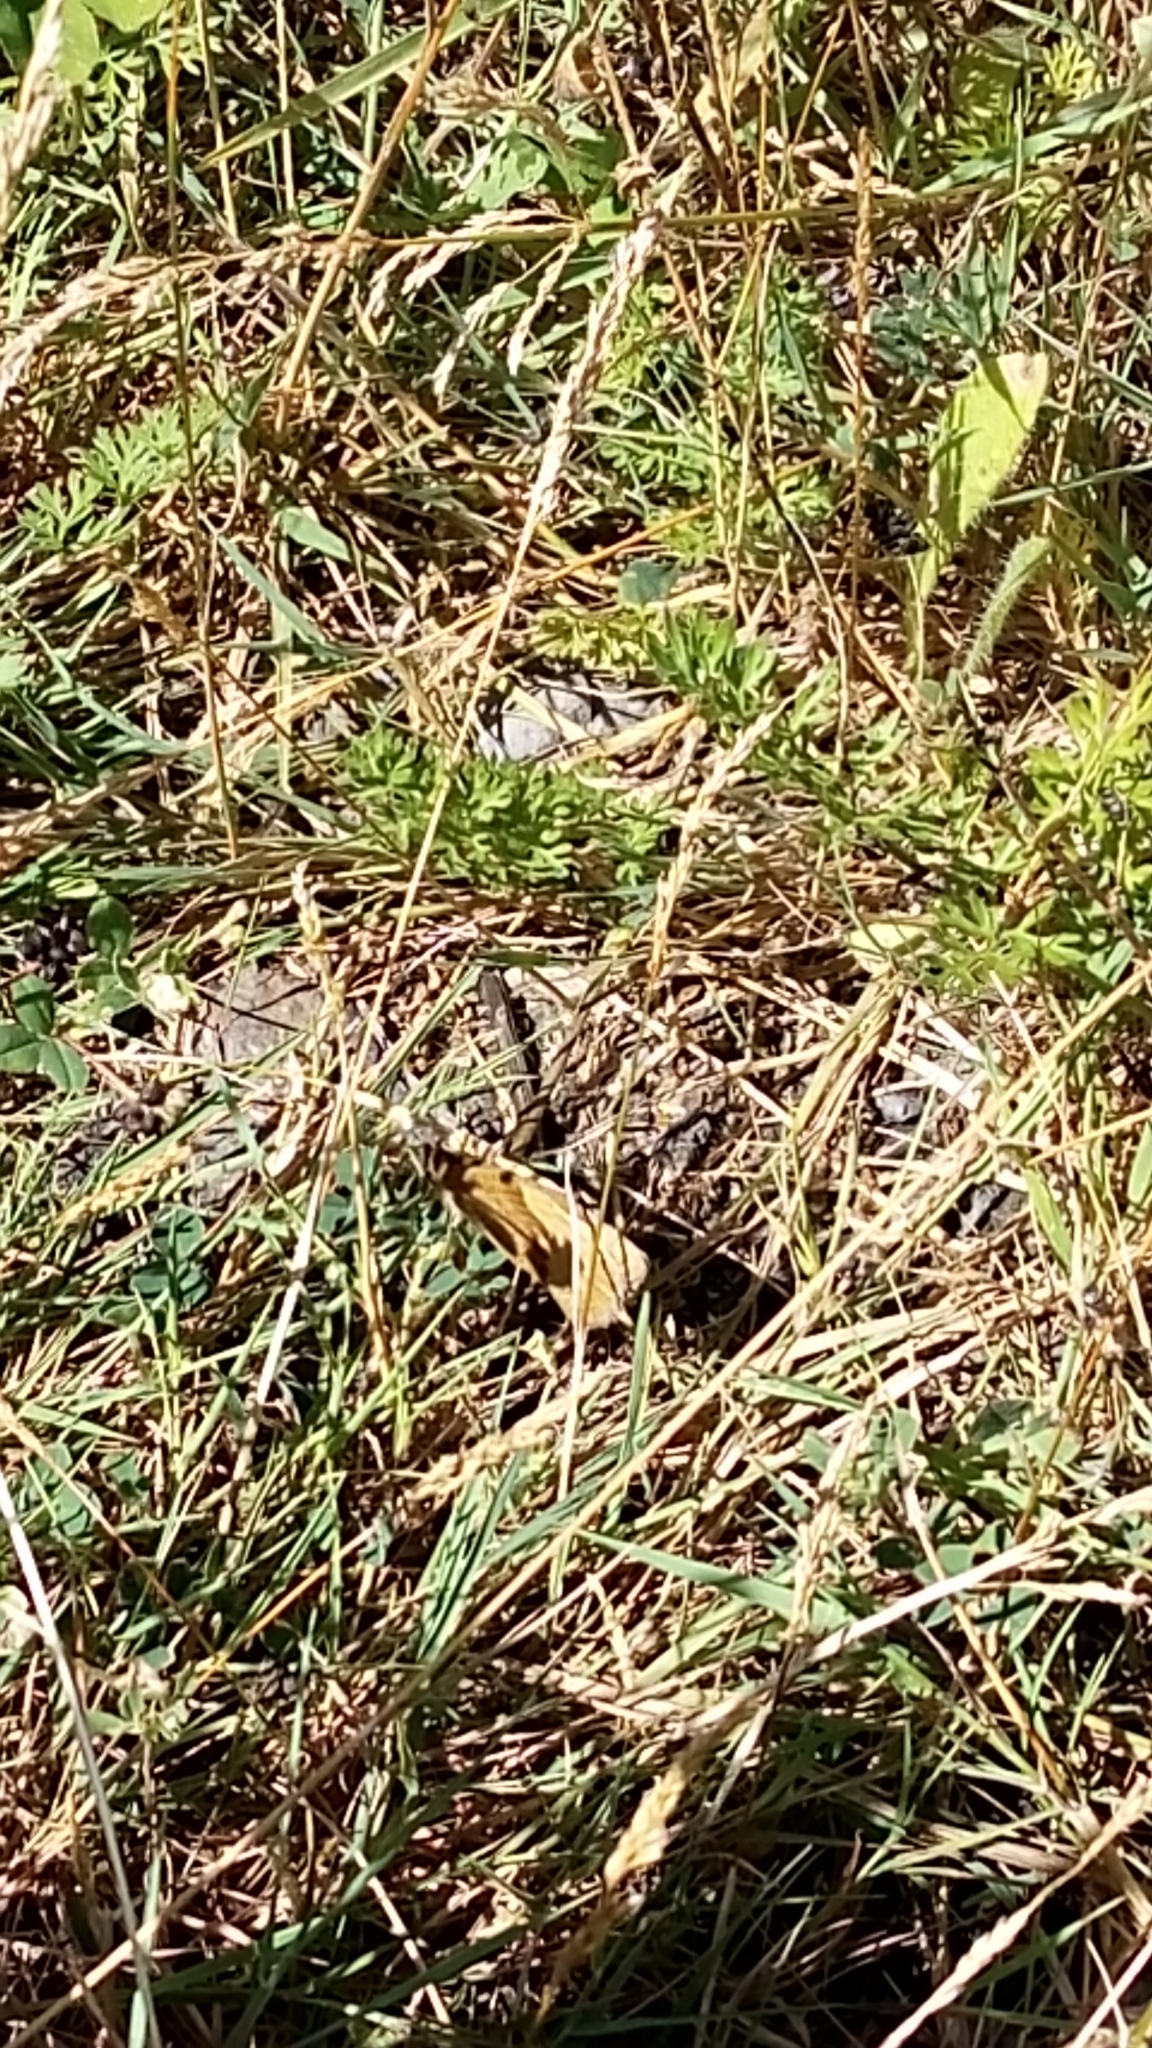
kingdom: Animalia
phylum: Arthropoda
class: Insecta
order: Lepidoptera
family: Satyridae
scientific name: Satyridae
